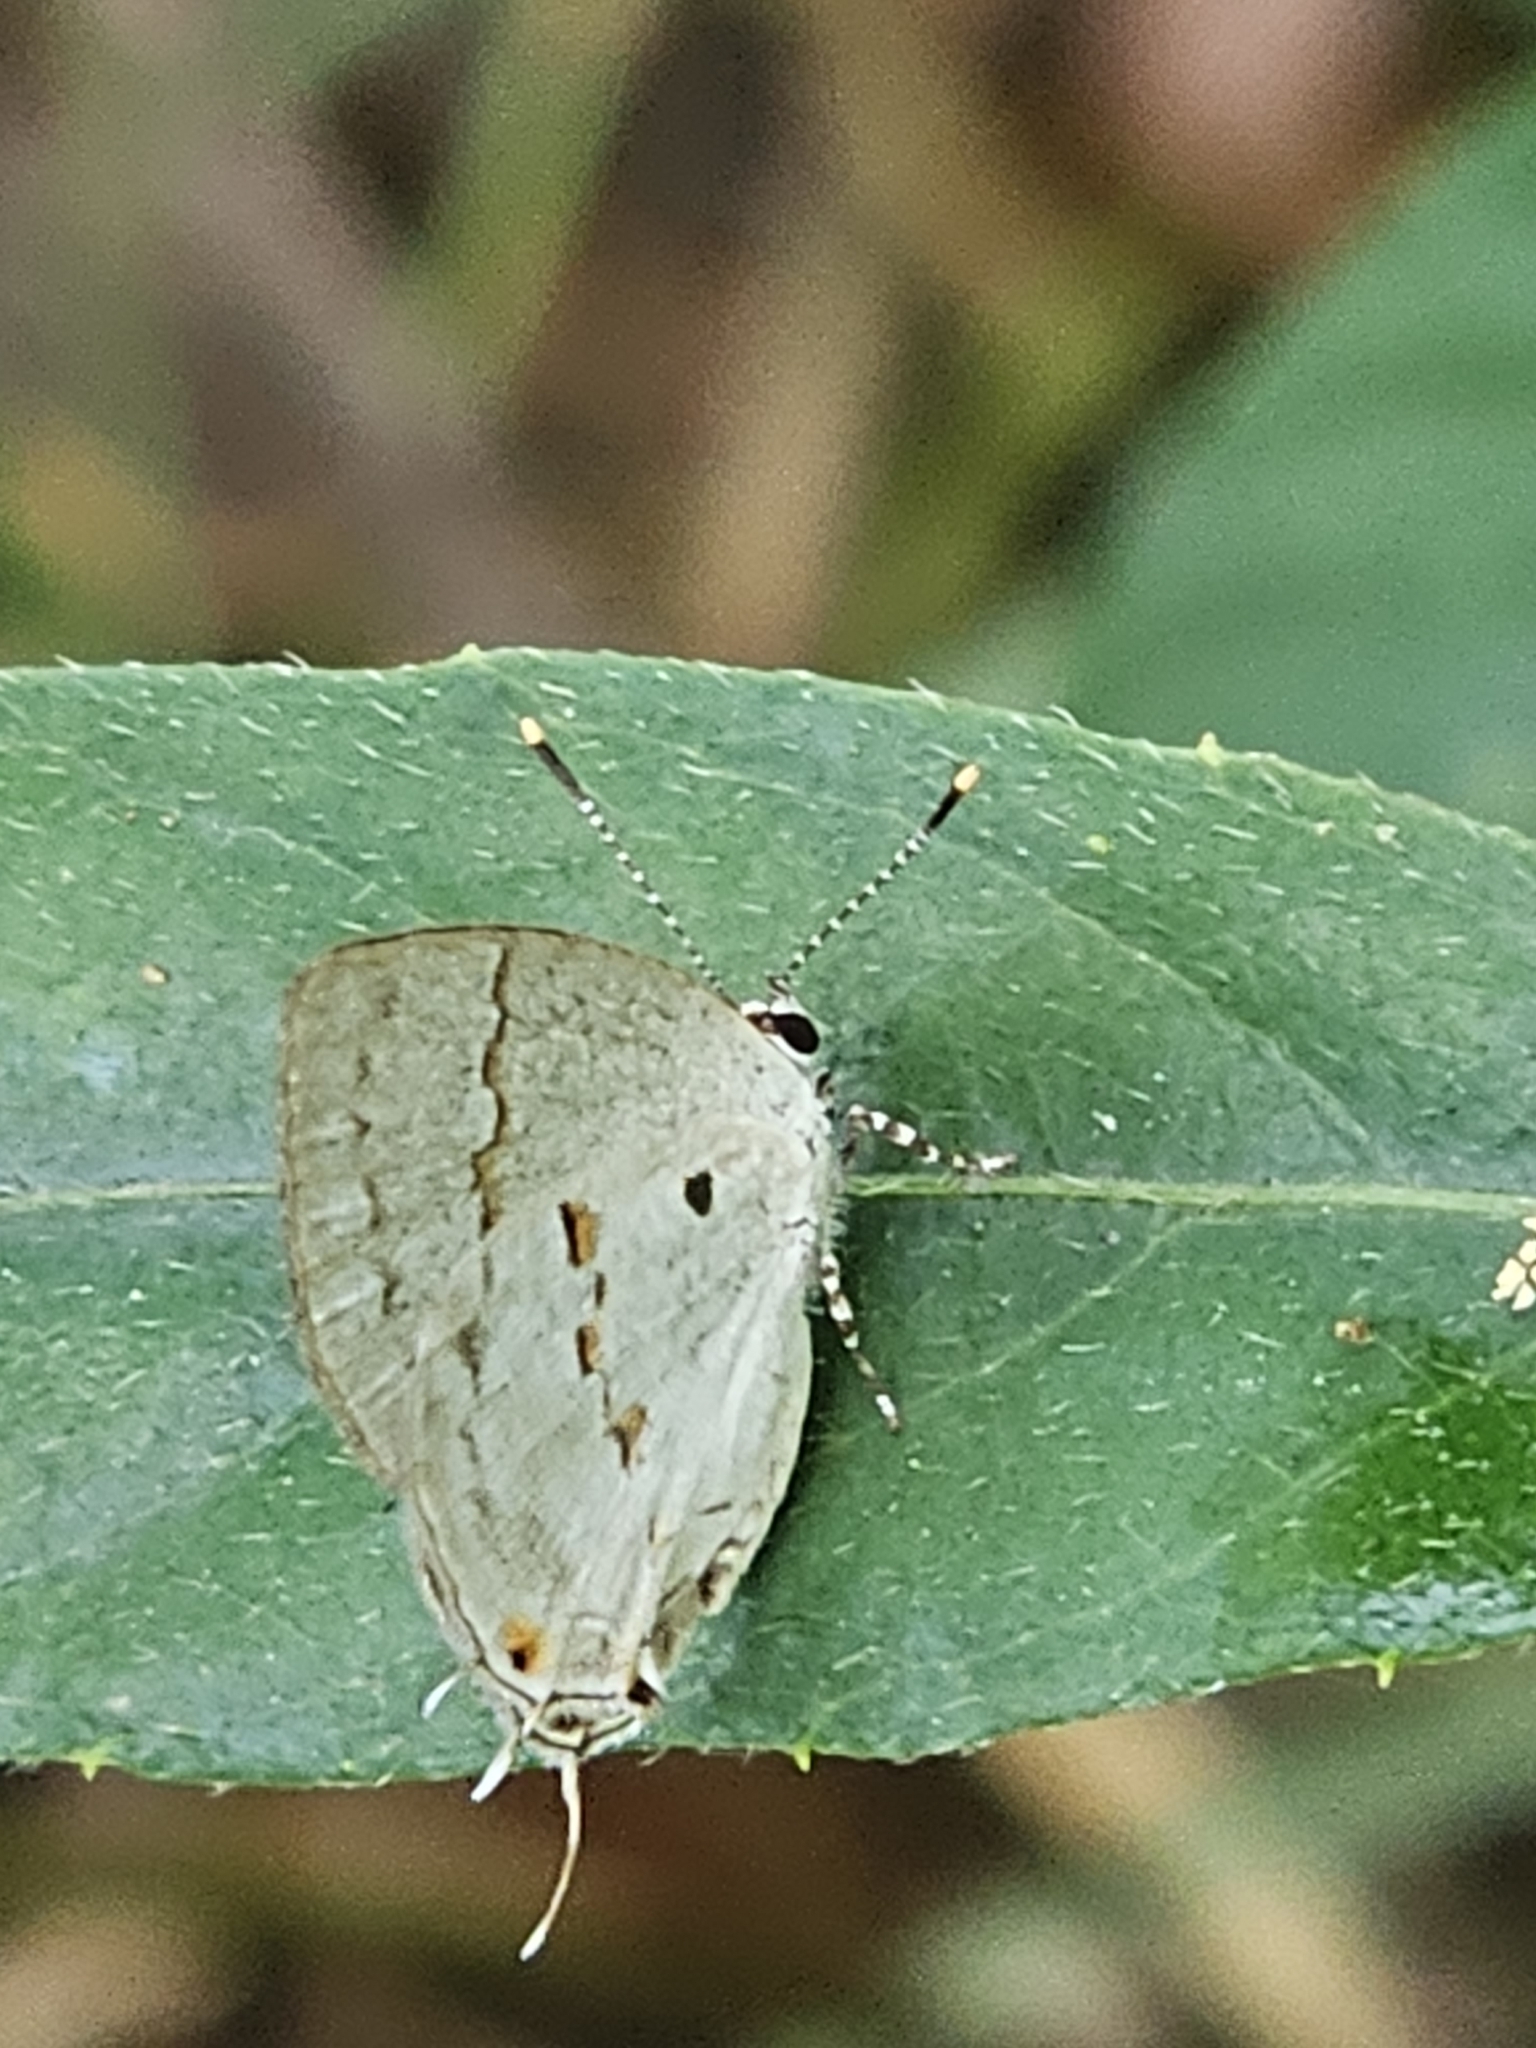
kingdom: Animalia
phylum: Arthropoda
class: Insecta
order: Lepidoptera
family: Lycaenidae
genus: Thecla
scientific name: Thecla celmus
